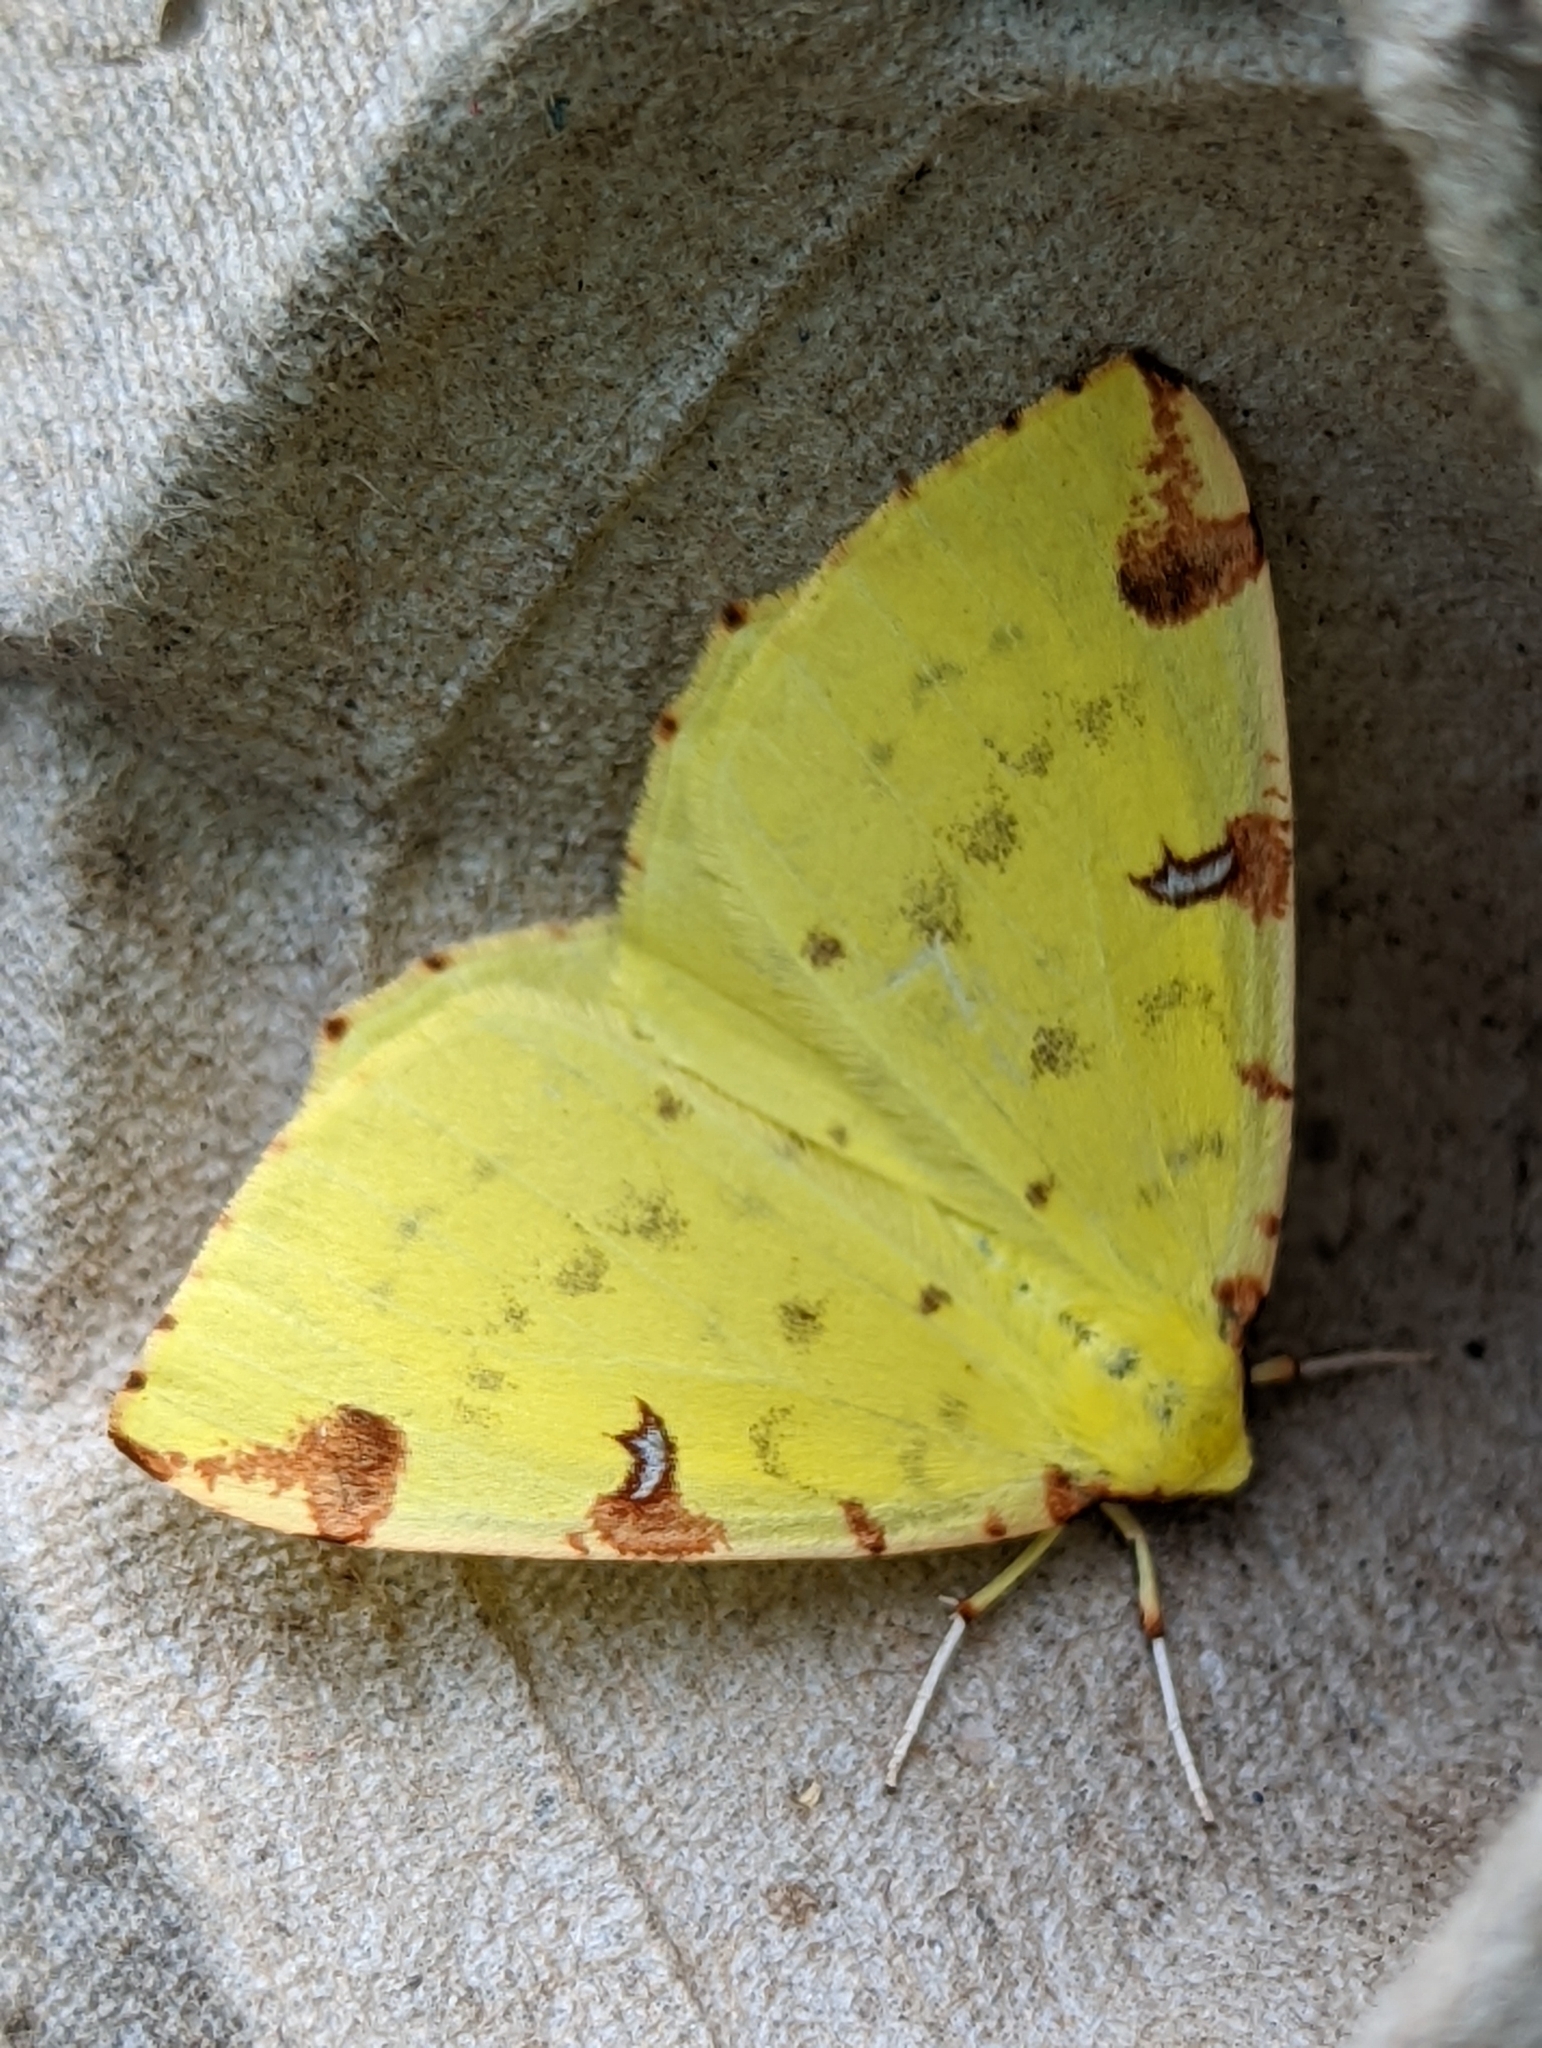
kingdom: Animalia
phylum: Arthropoda
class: Insecta
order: Lepidoptera
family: Geometridae
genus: Opisthograptis
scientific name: Opisthograptis luteolata
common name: Brimstone moth
